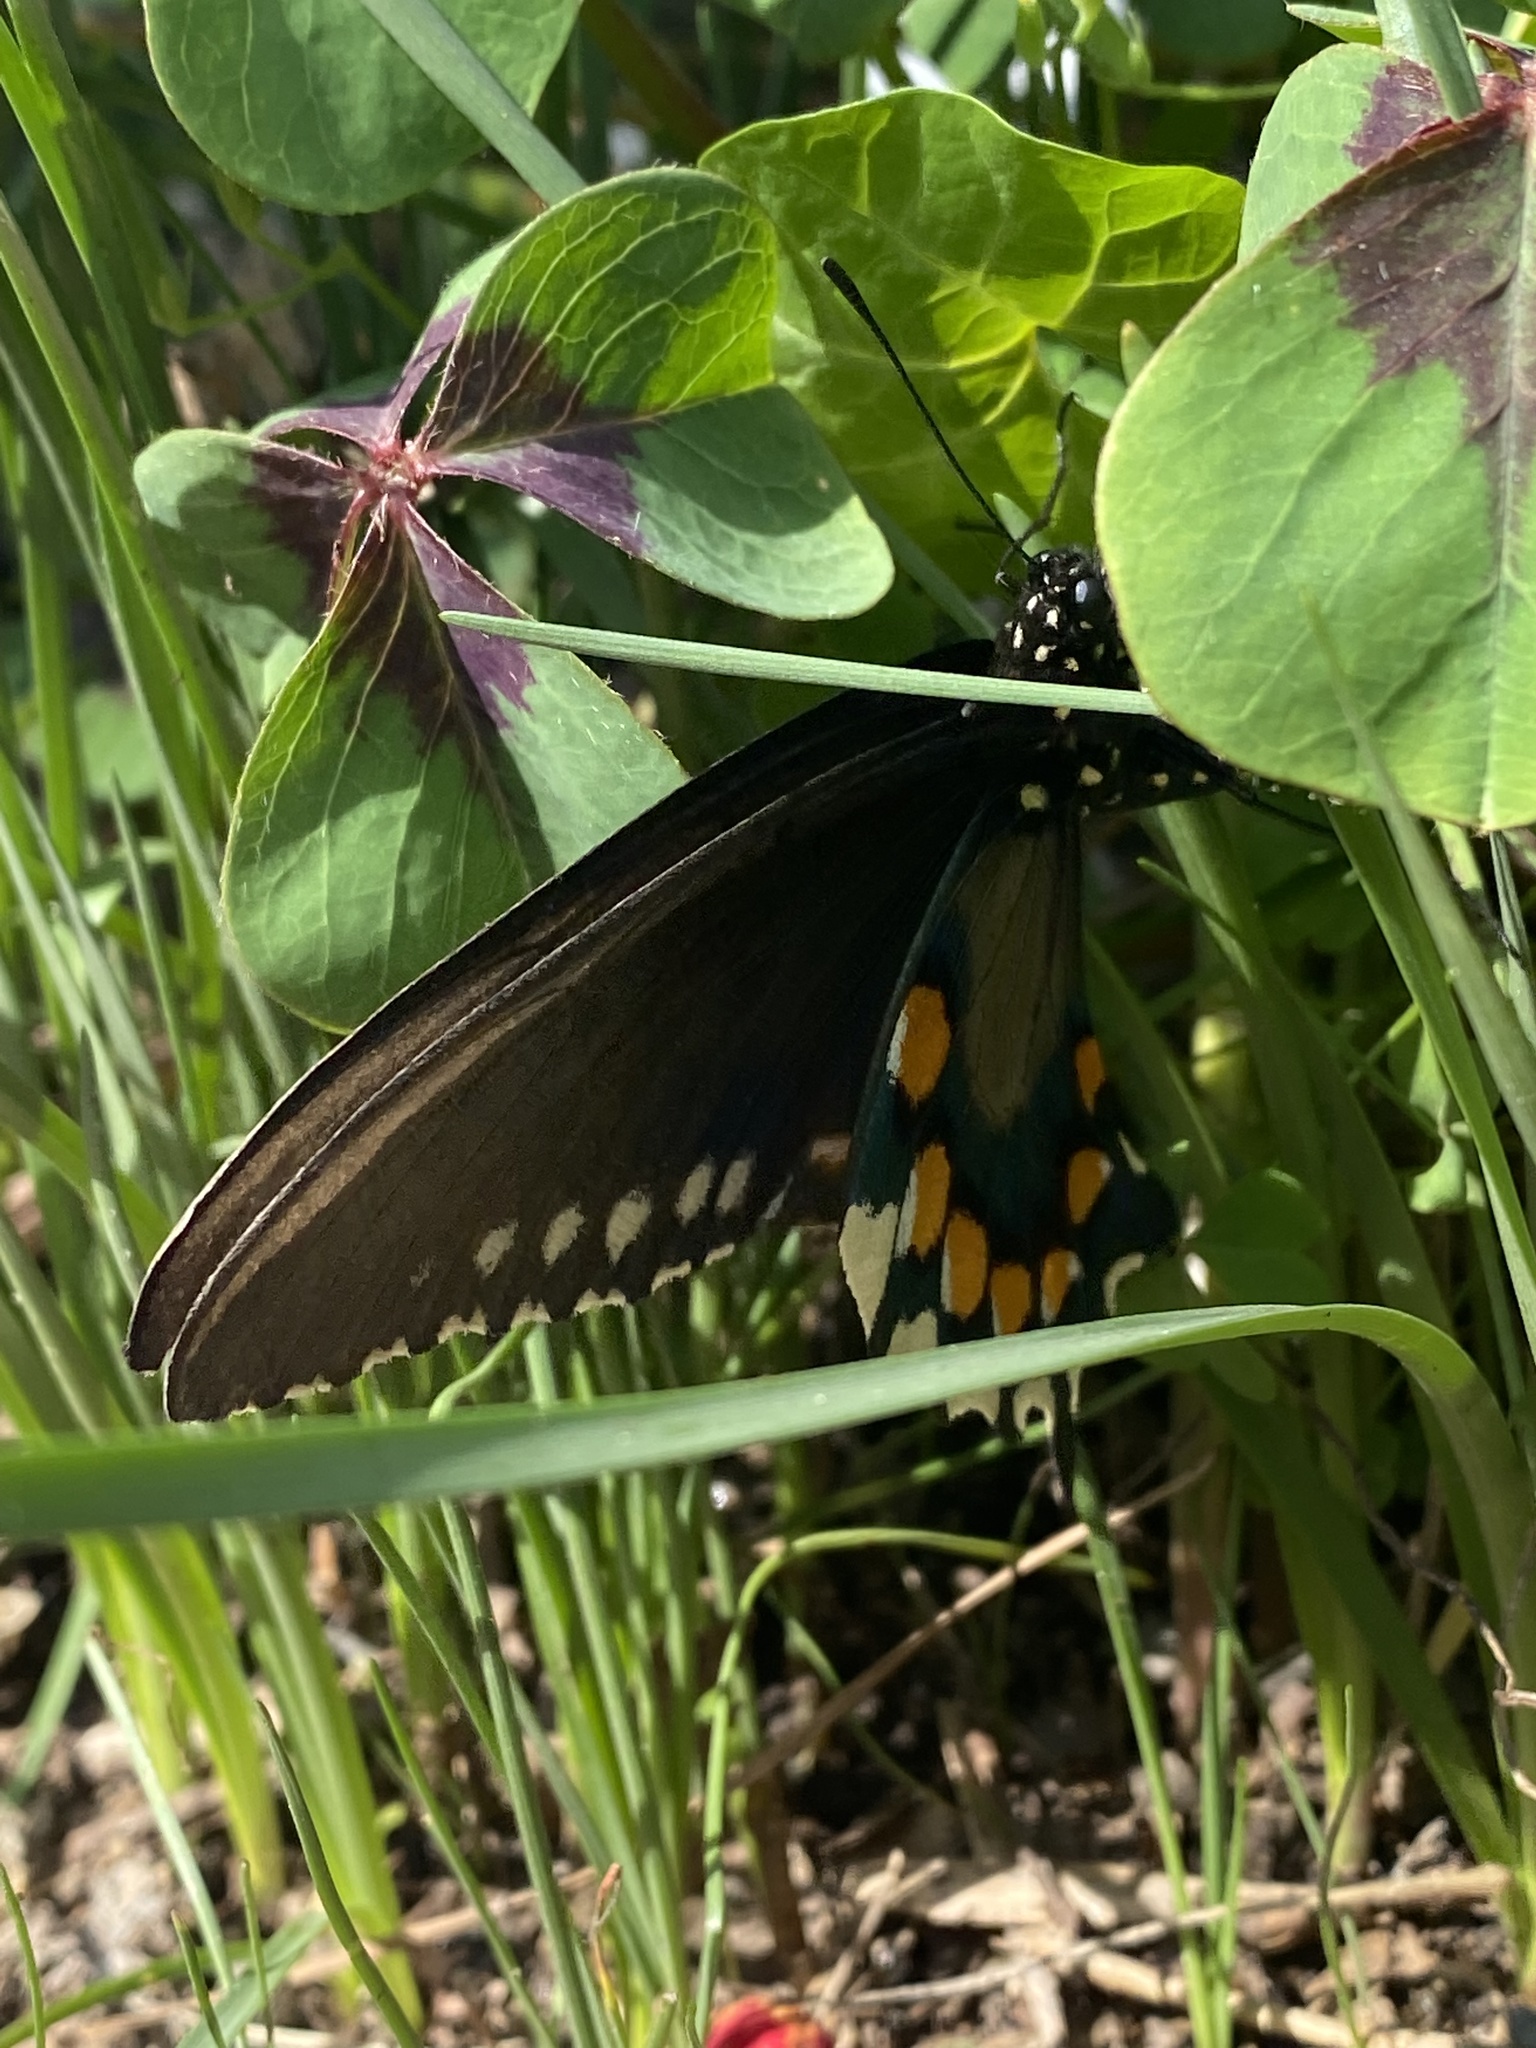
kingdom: Animalia
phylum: Arthropoda
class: Insecta
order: Lepidoptera
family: Papilionidae
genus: Battus
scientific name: Battus philenor
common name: Pipevine swallowtail
